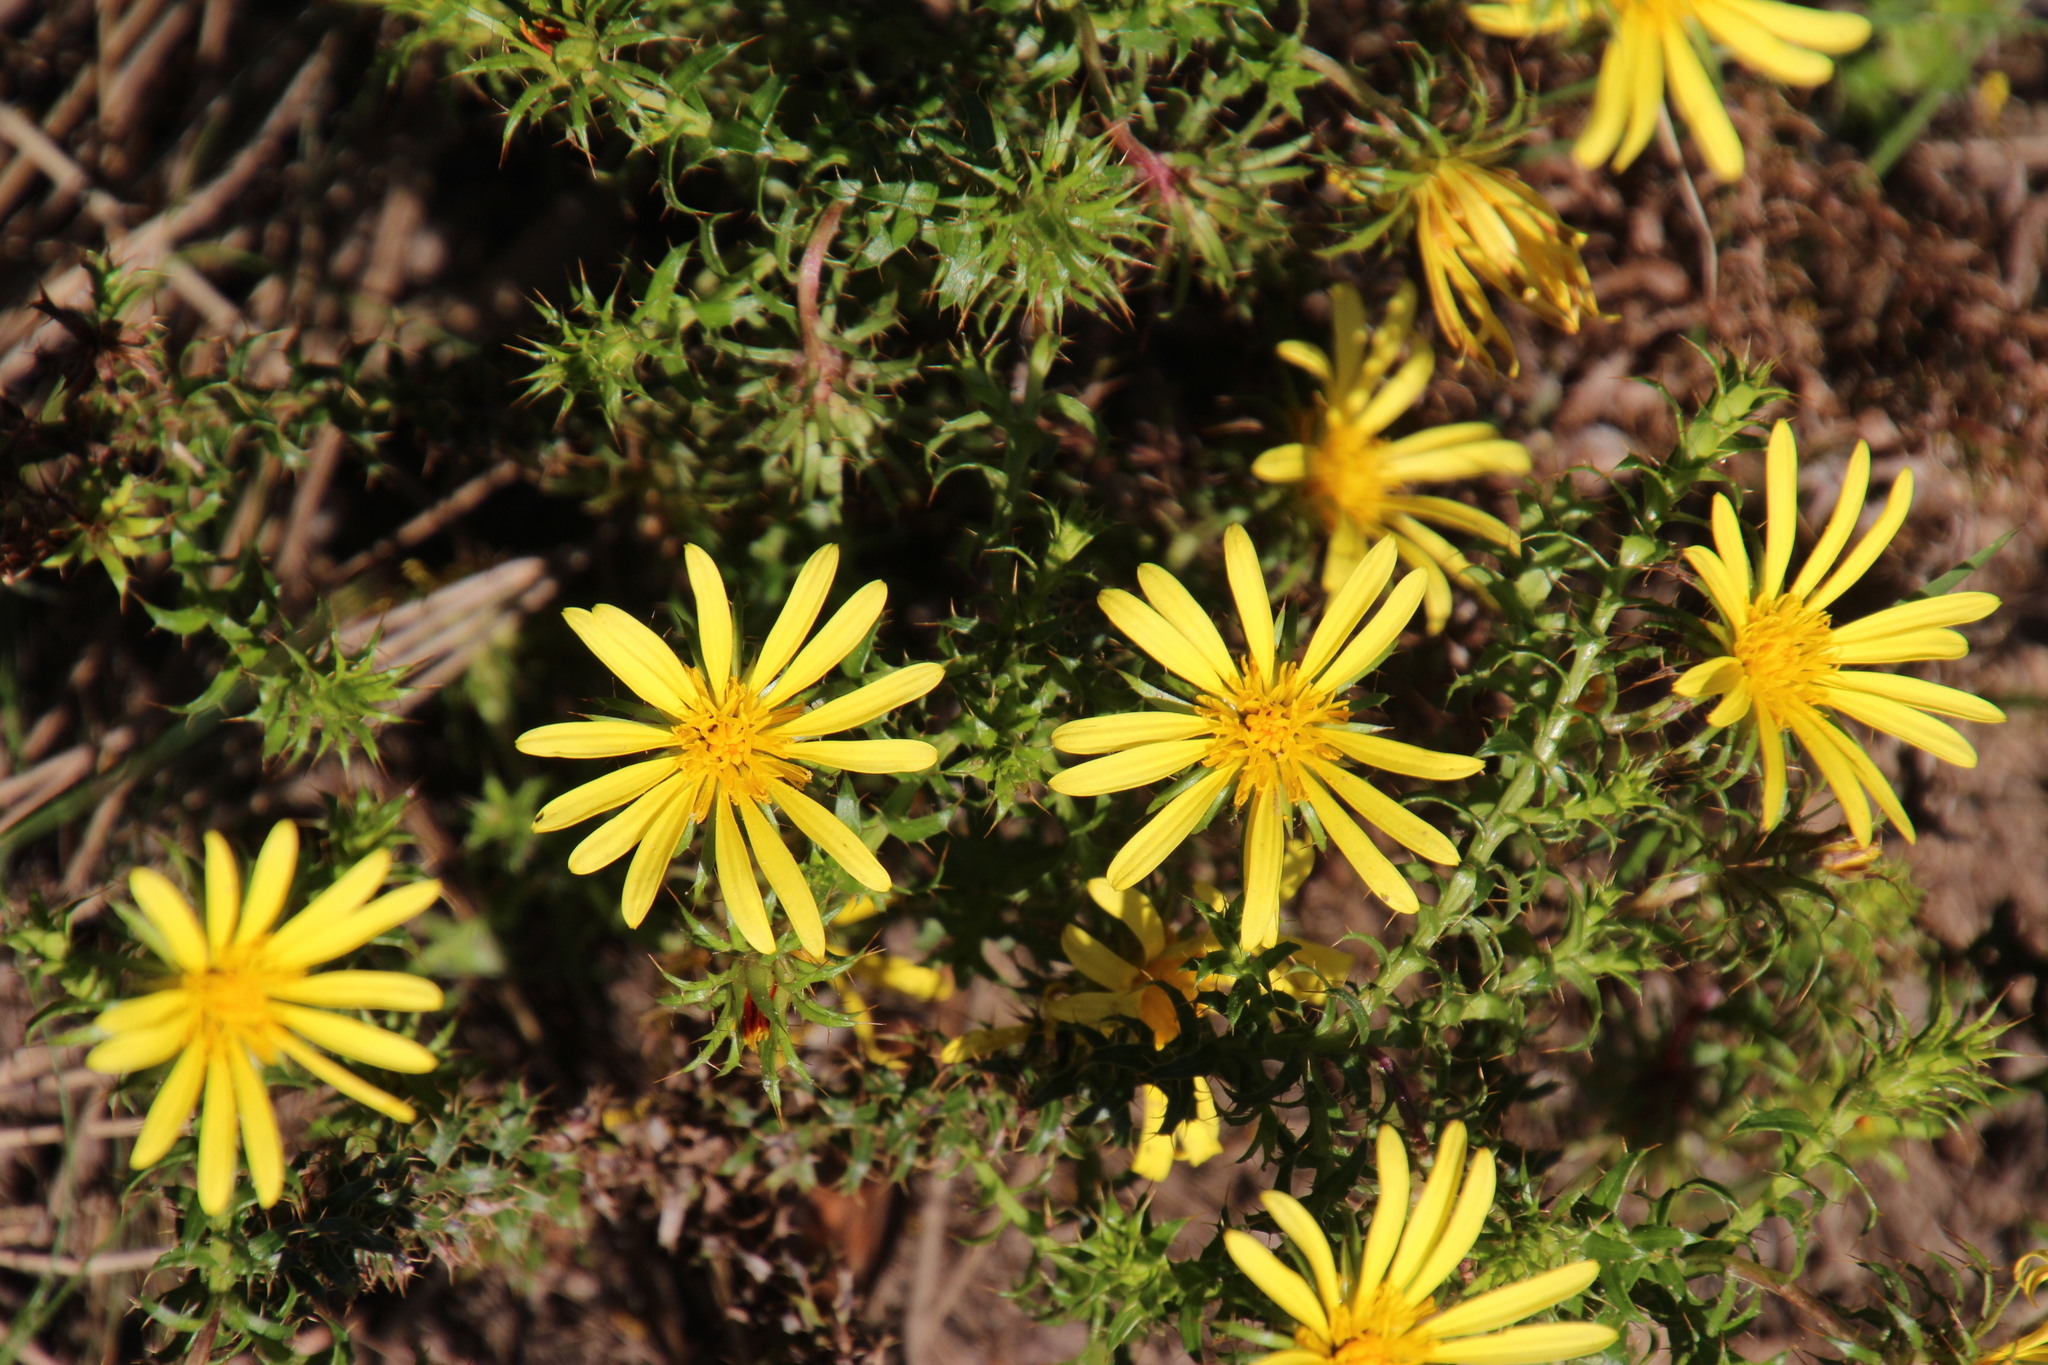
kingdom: Plantae
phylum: Tracheophyta
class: Magnoliopsida
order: Asterales
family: Asteraceae
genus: Cullumia
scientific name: Cullumia setosa
